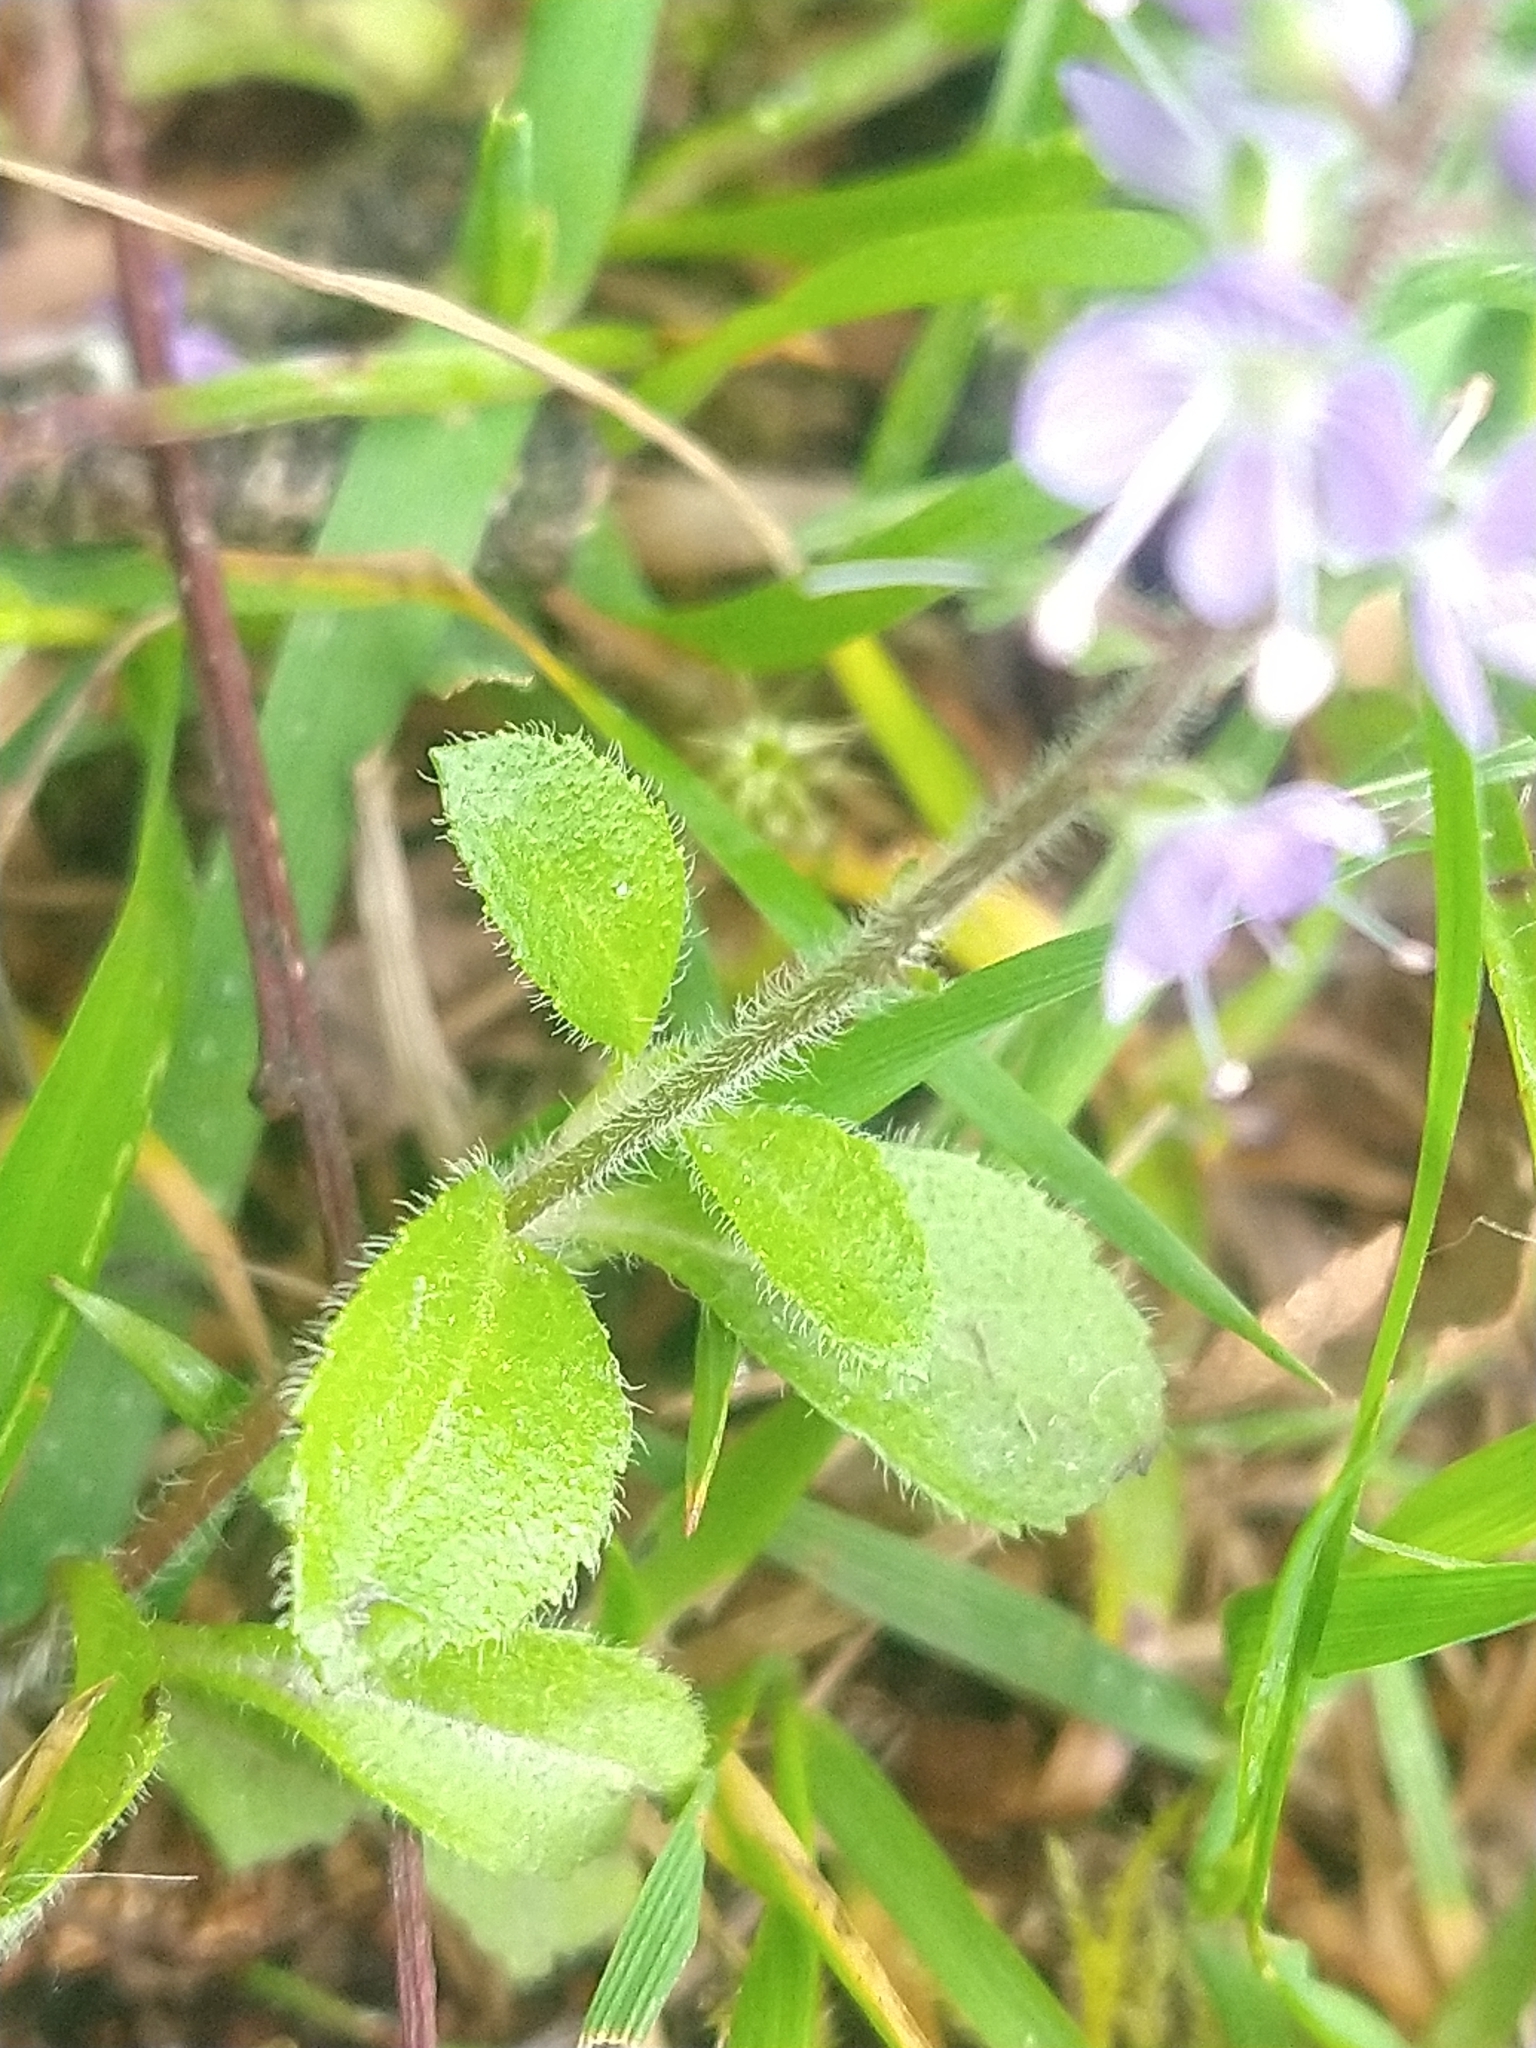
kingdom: Plantae
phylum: Tracheophyta
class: Magnoliopsida
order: Lamiales
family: Plantaginaceae
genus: Veronica
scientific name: Veronica officinalis
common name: Common speedwell
